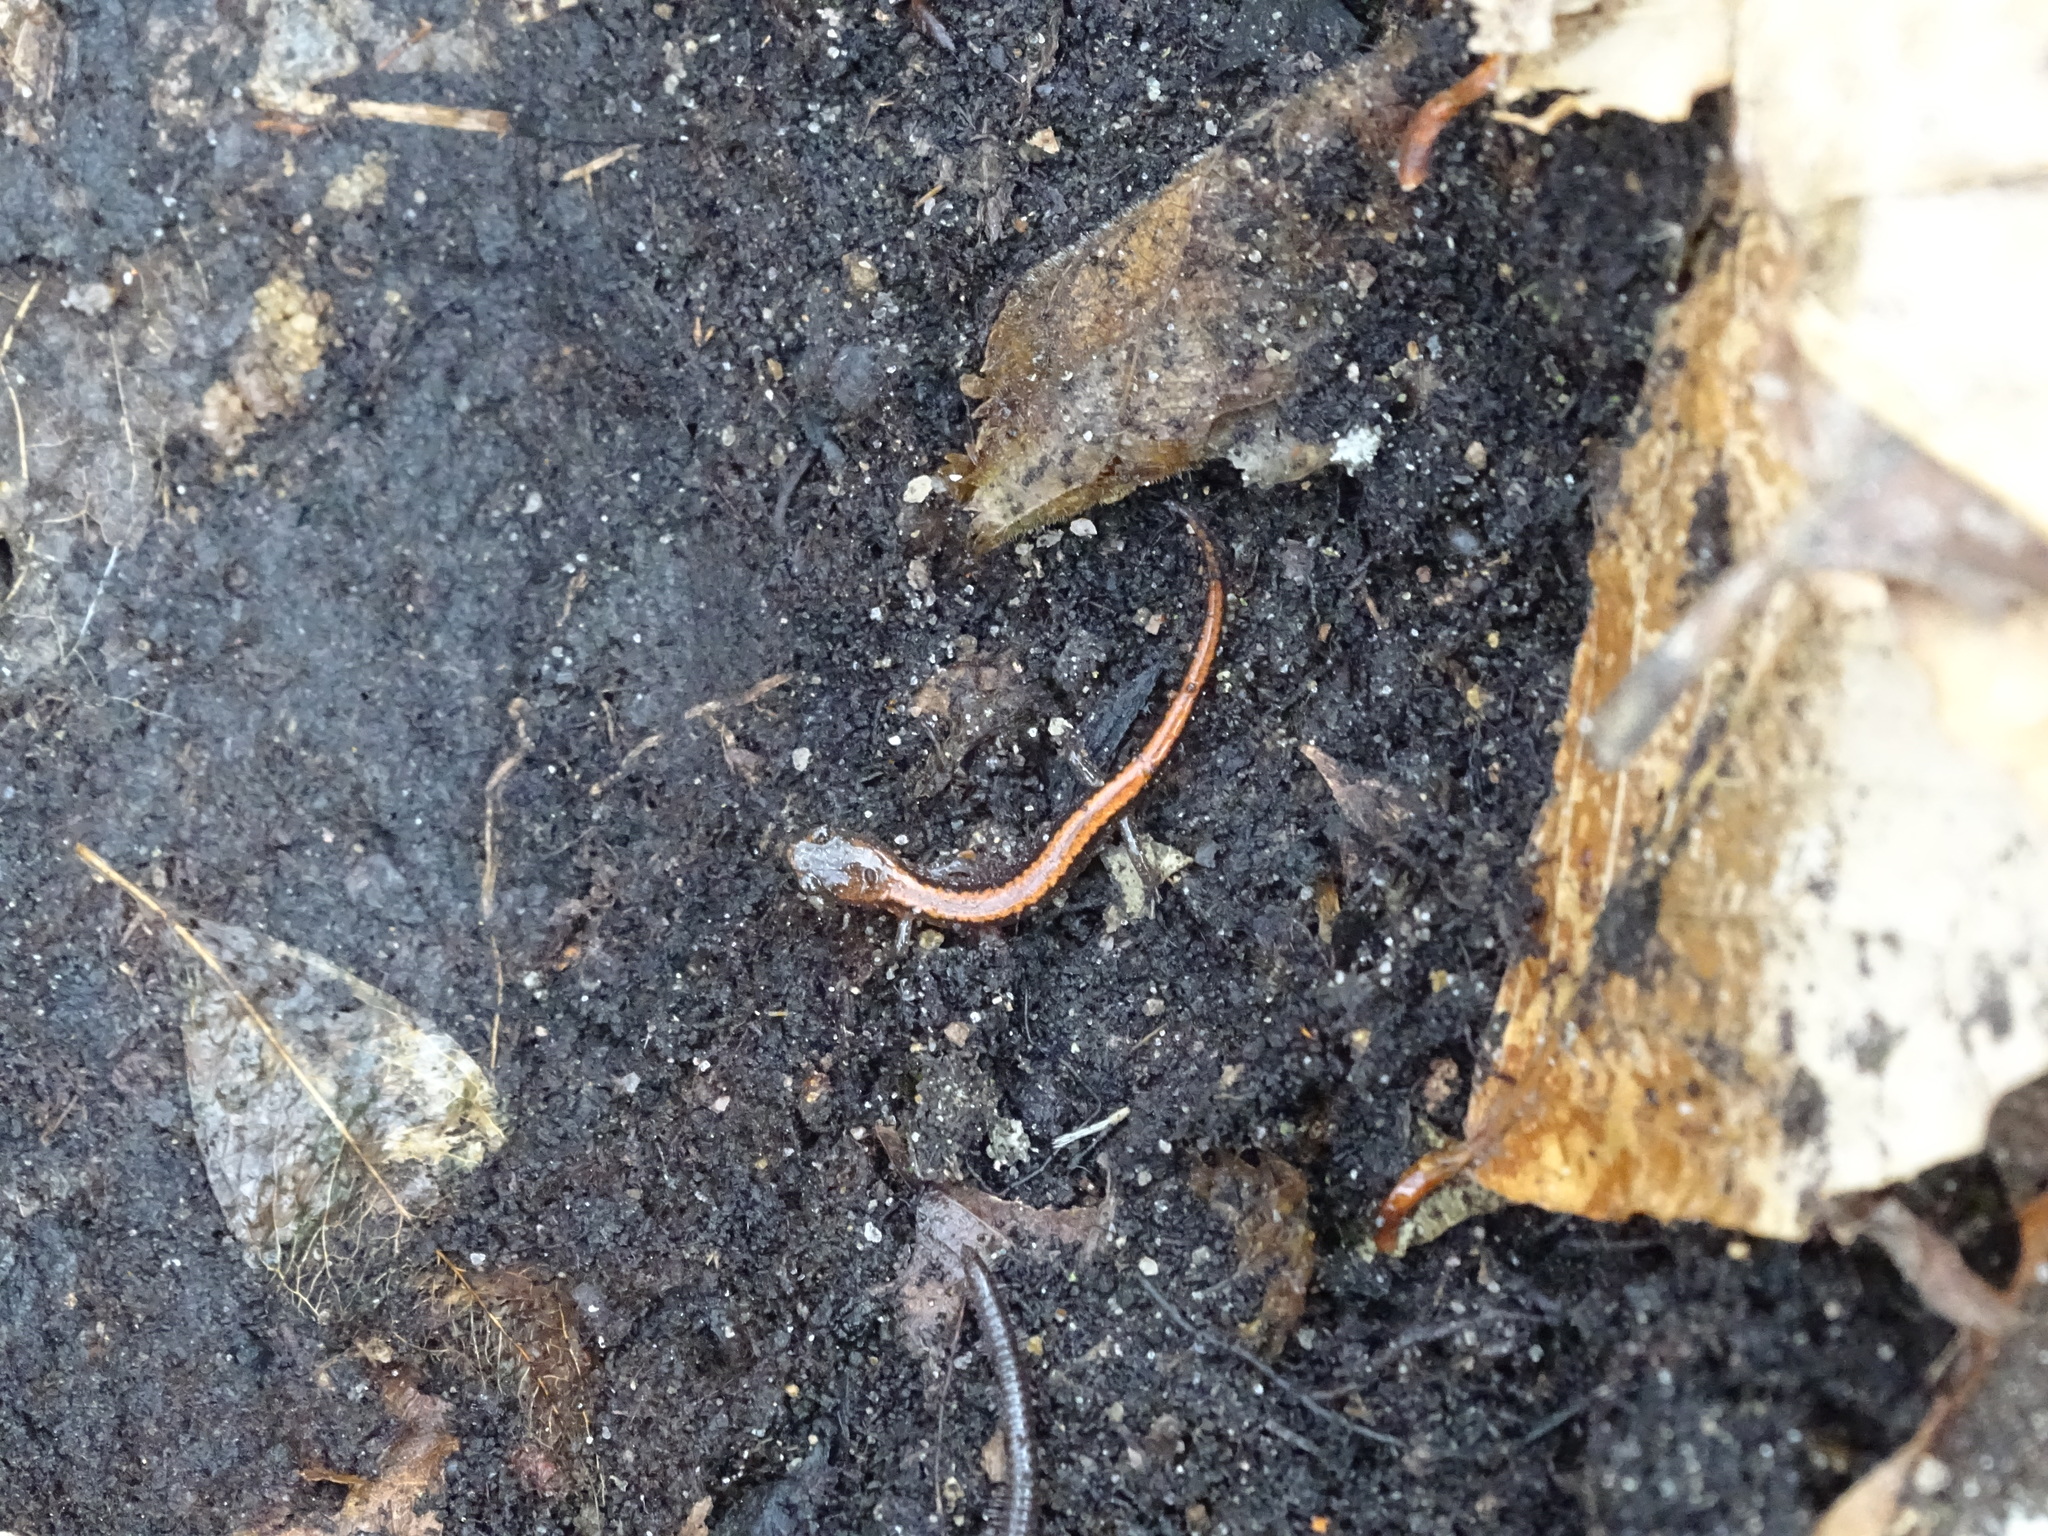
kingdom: Animalia
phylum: Chordata
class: Amphibia
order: Caudata
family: Plethodontidae
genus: Plethodon
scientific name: Plethodon cinereus
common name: Redback salamander
